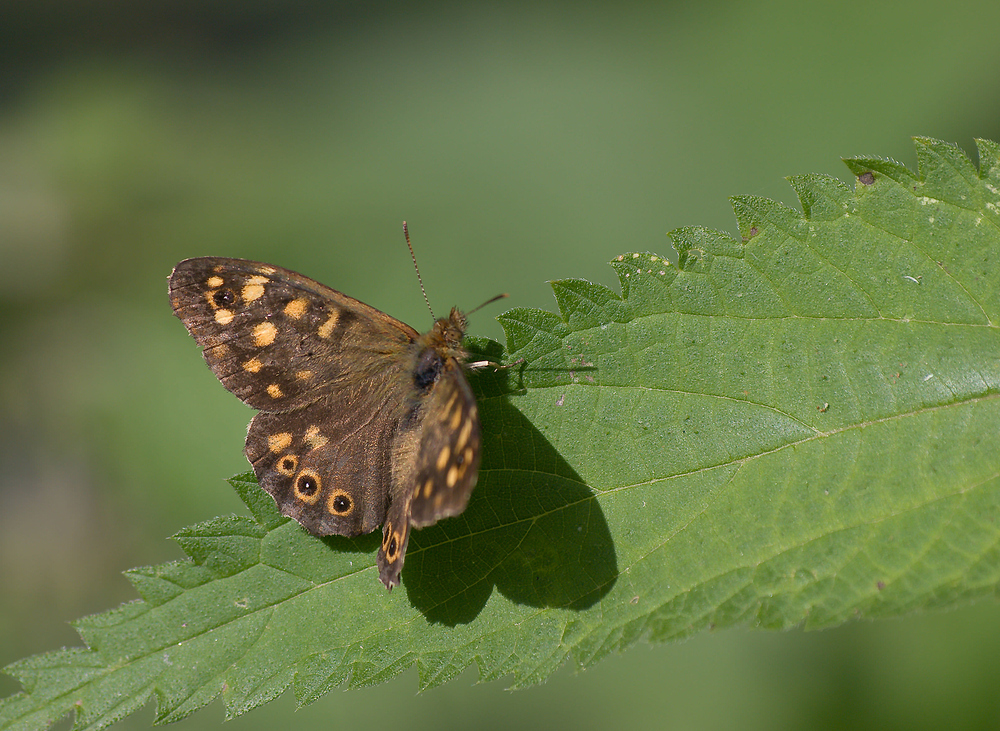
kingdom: Animalia
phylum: Arthropoda
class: Insecta
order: Lepidoptera
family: Nymphalidae
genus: Pararge
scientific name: Pararge aegeria
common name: Speckled wood
